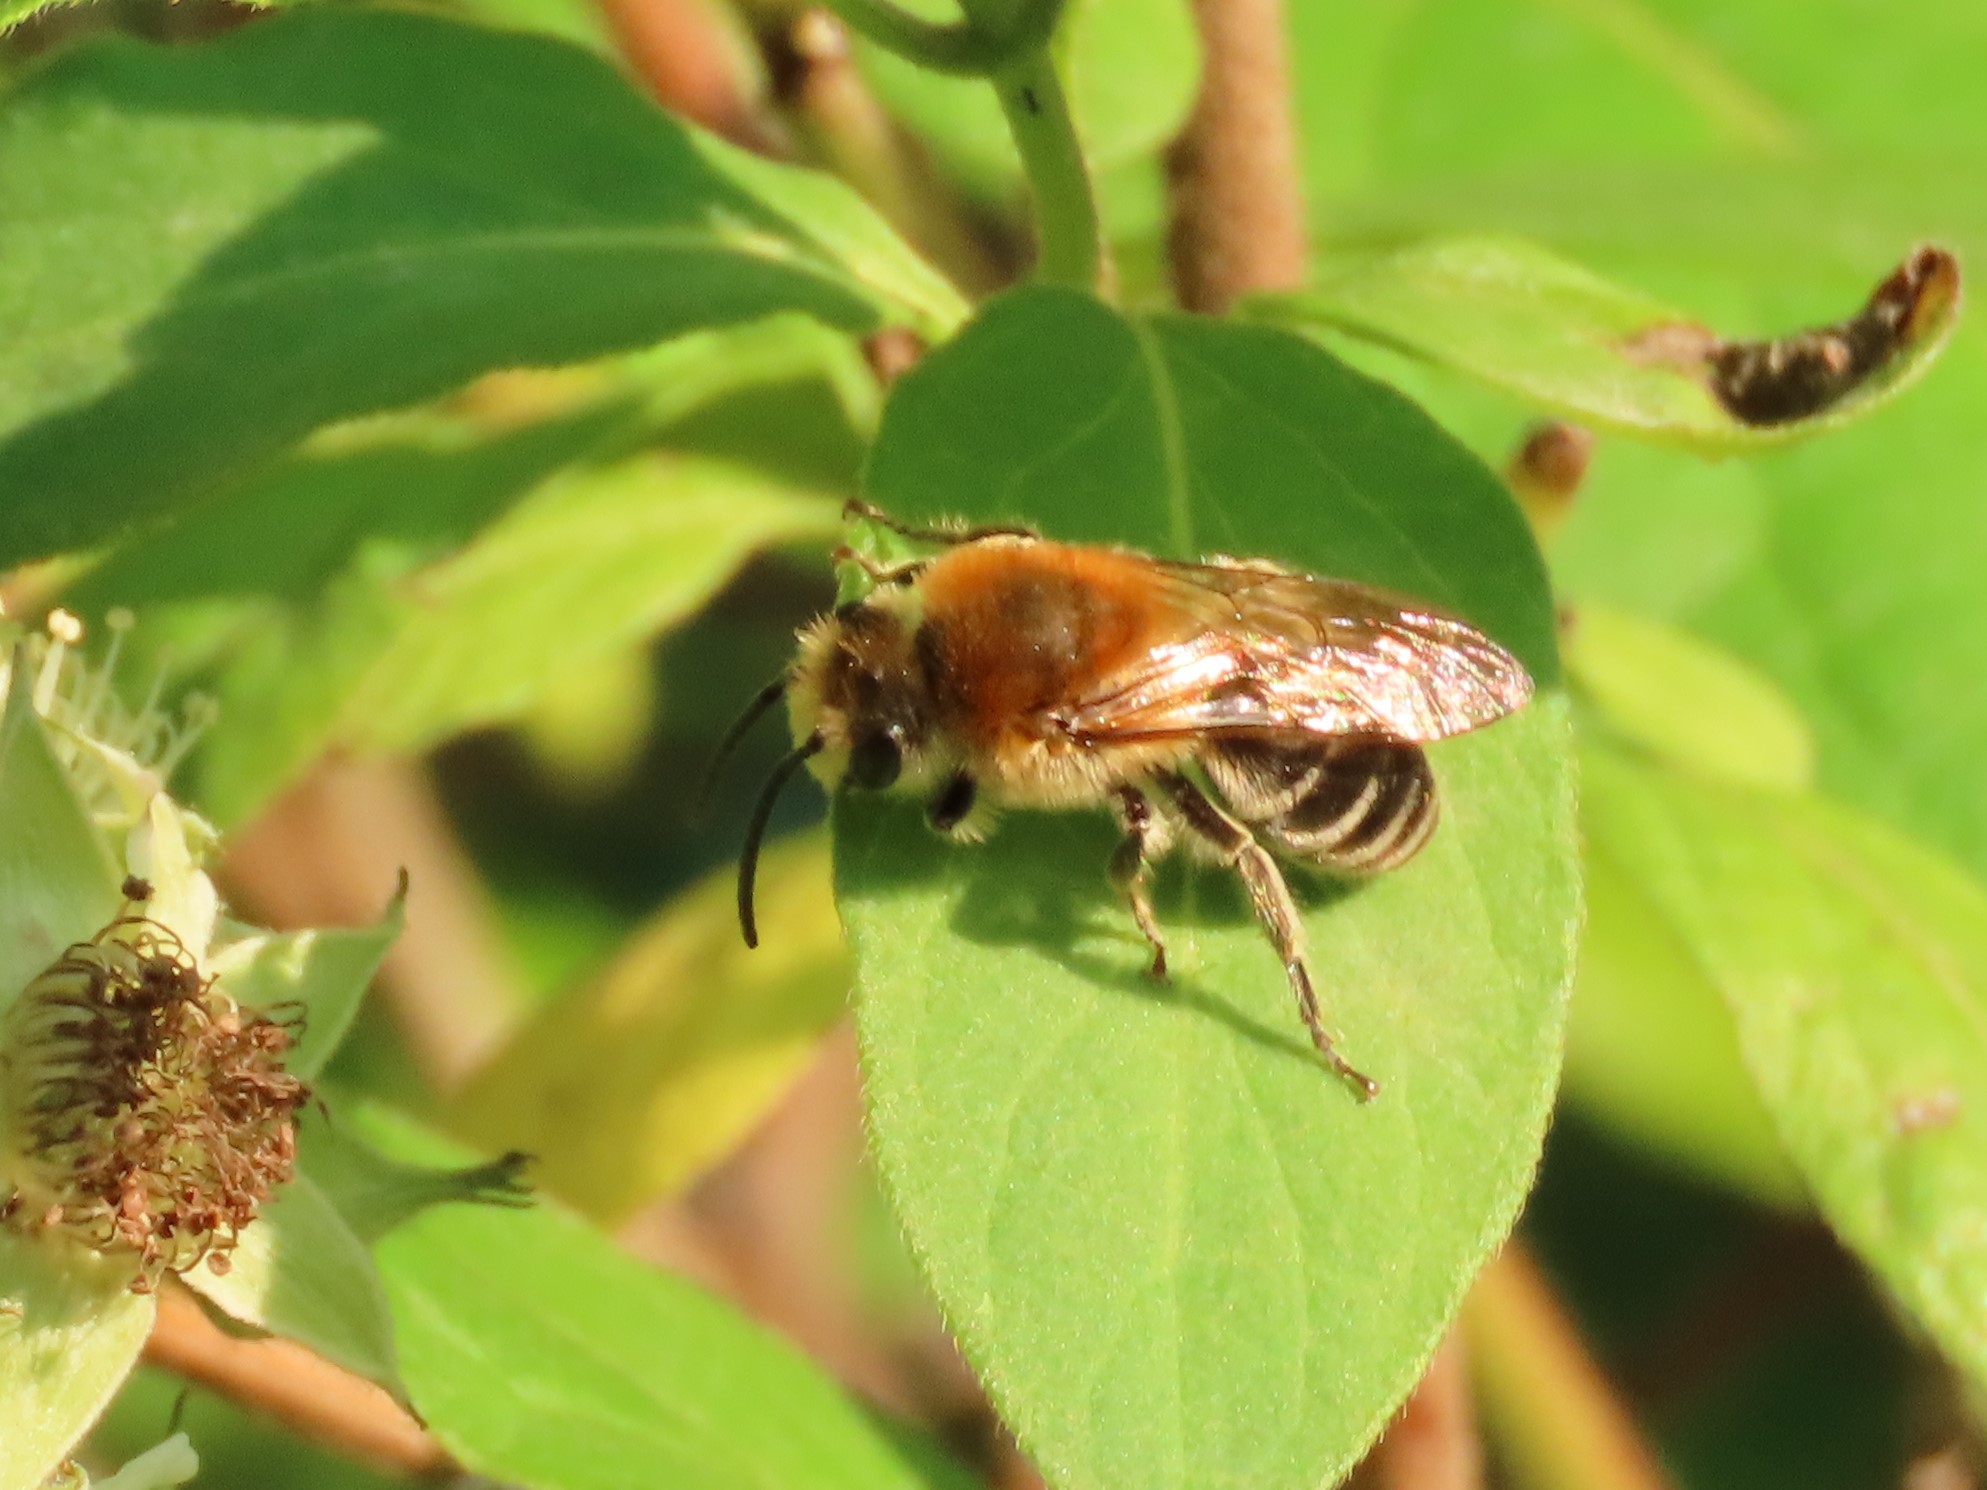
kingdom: Animalia
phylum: Arthropoda
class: Insecta
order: Hymenoptera
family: Colletidae
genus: Colletes
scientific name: Colletes thoracicus
